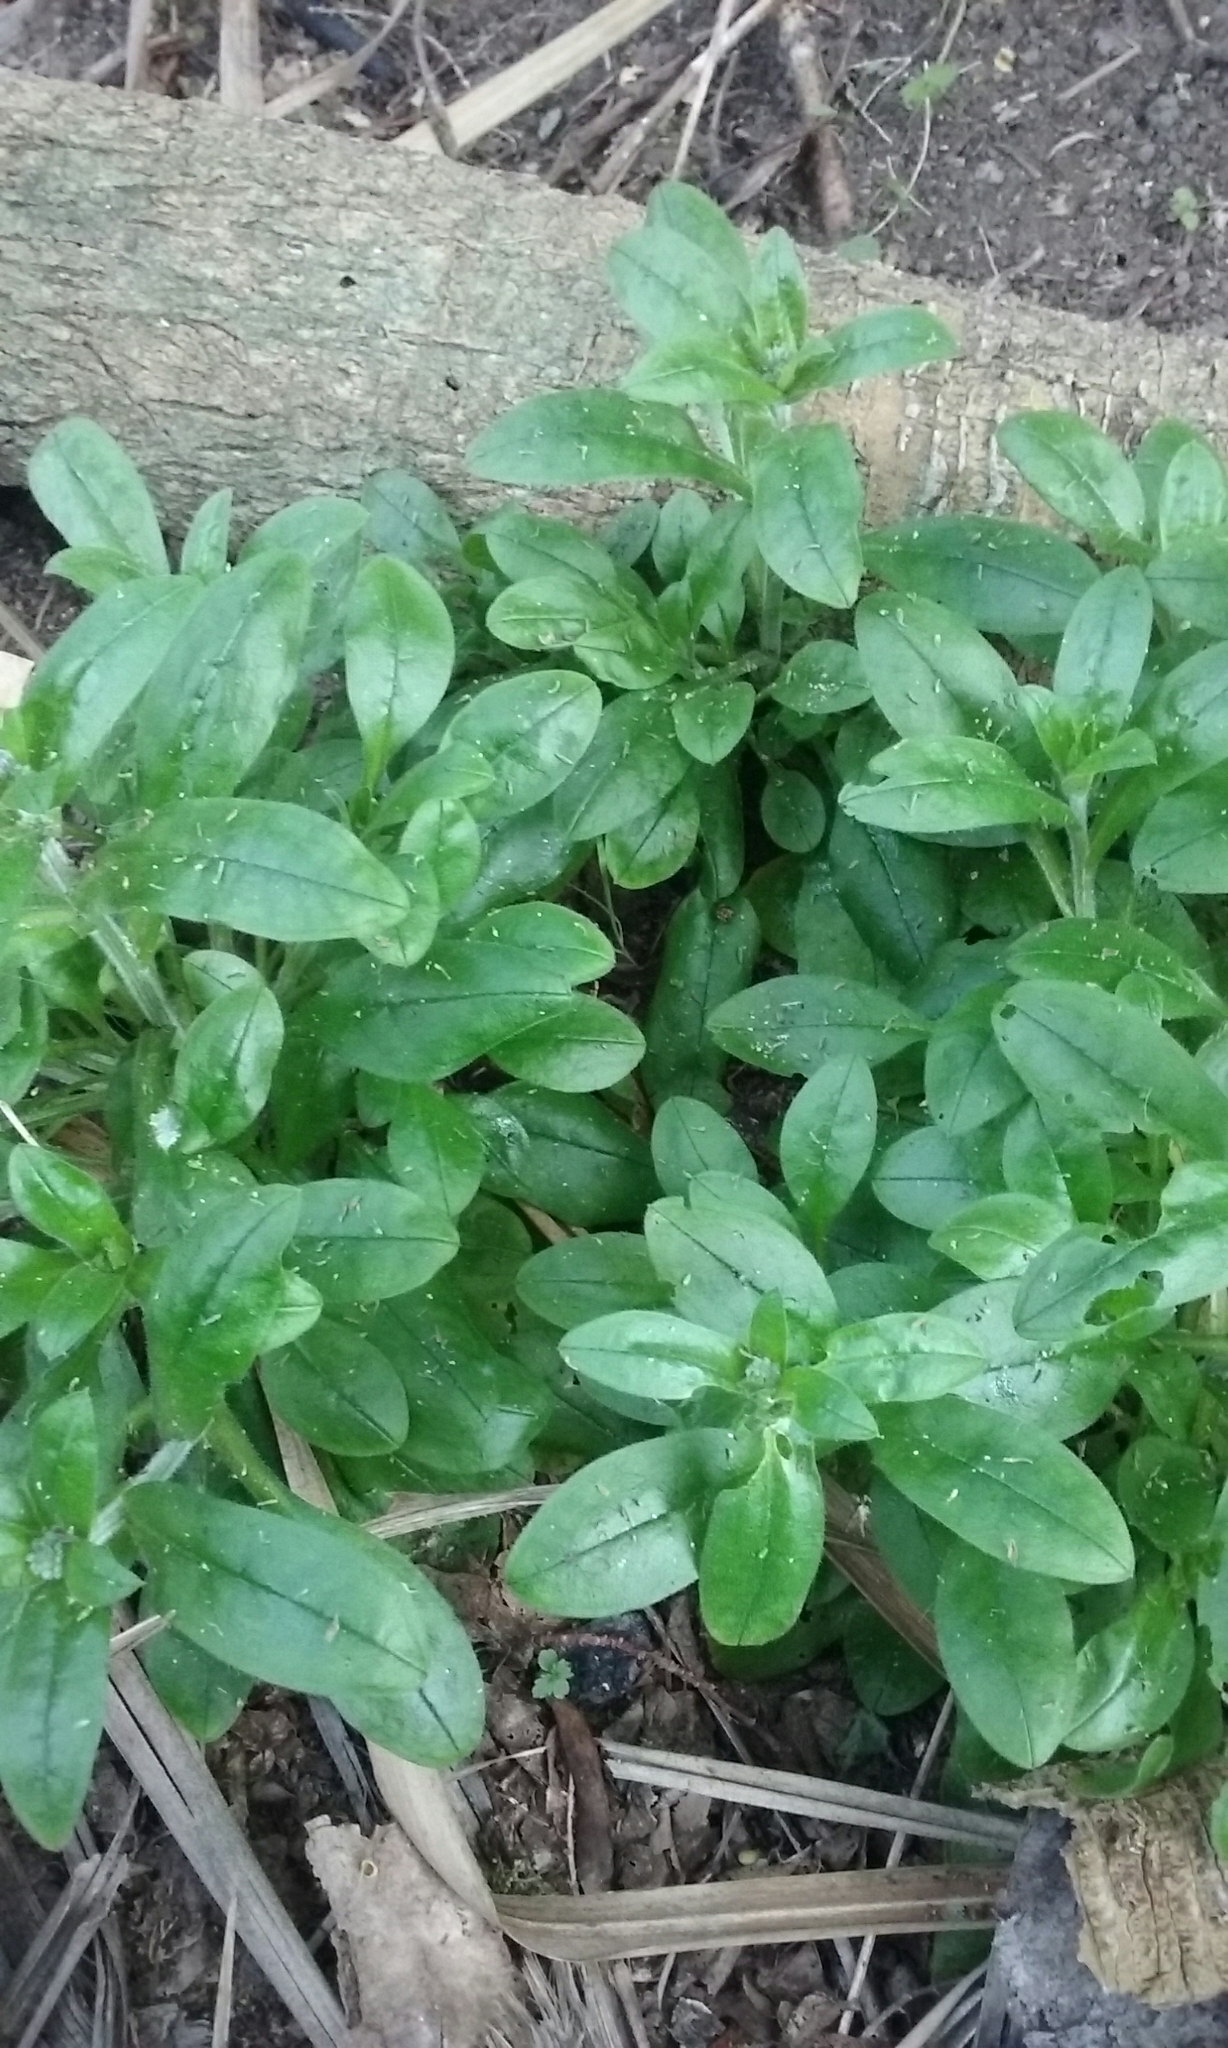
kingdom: Plantae
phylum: Tracheophyta
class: Magnoliopsida
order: Boraginales
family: Boraginaceae
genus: Myosotis
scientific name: Myosotis sylvatica
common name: Wood forget-me-not
